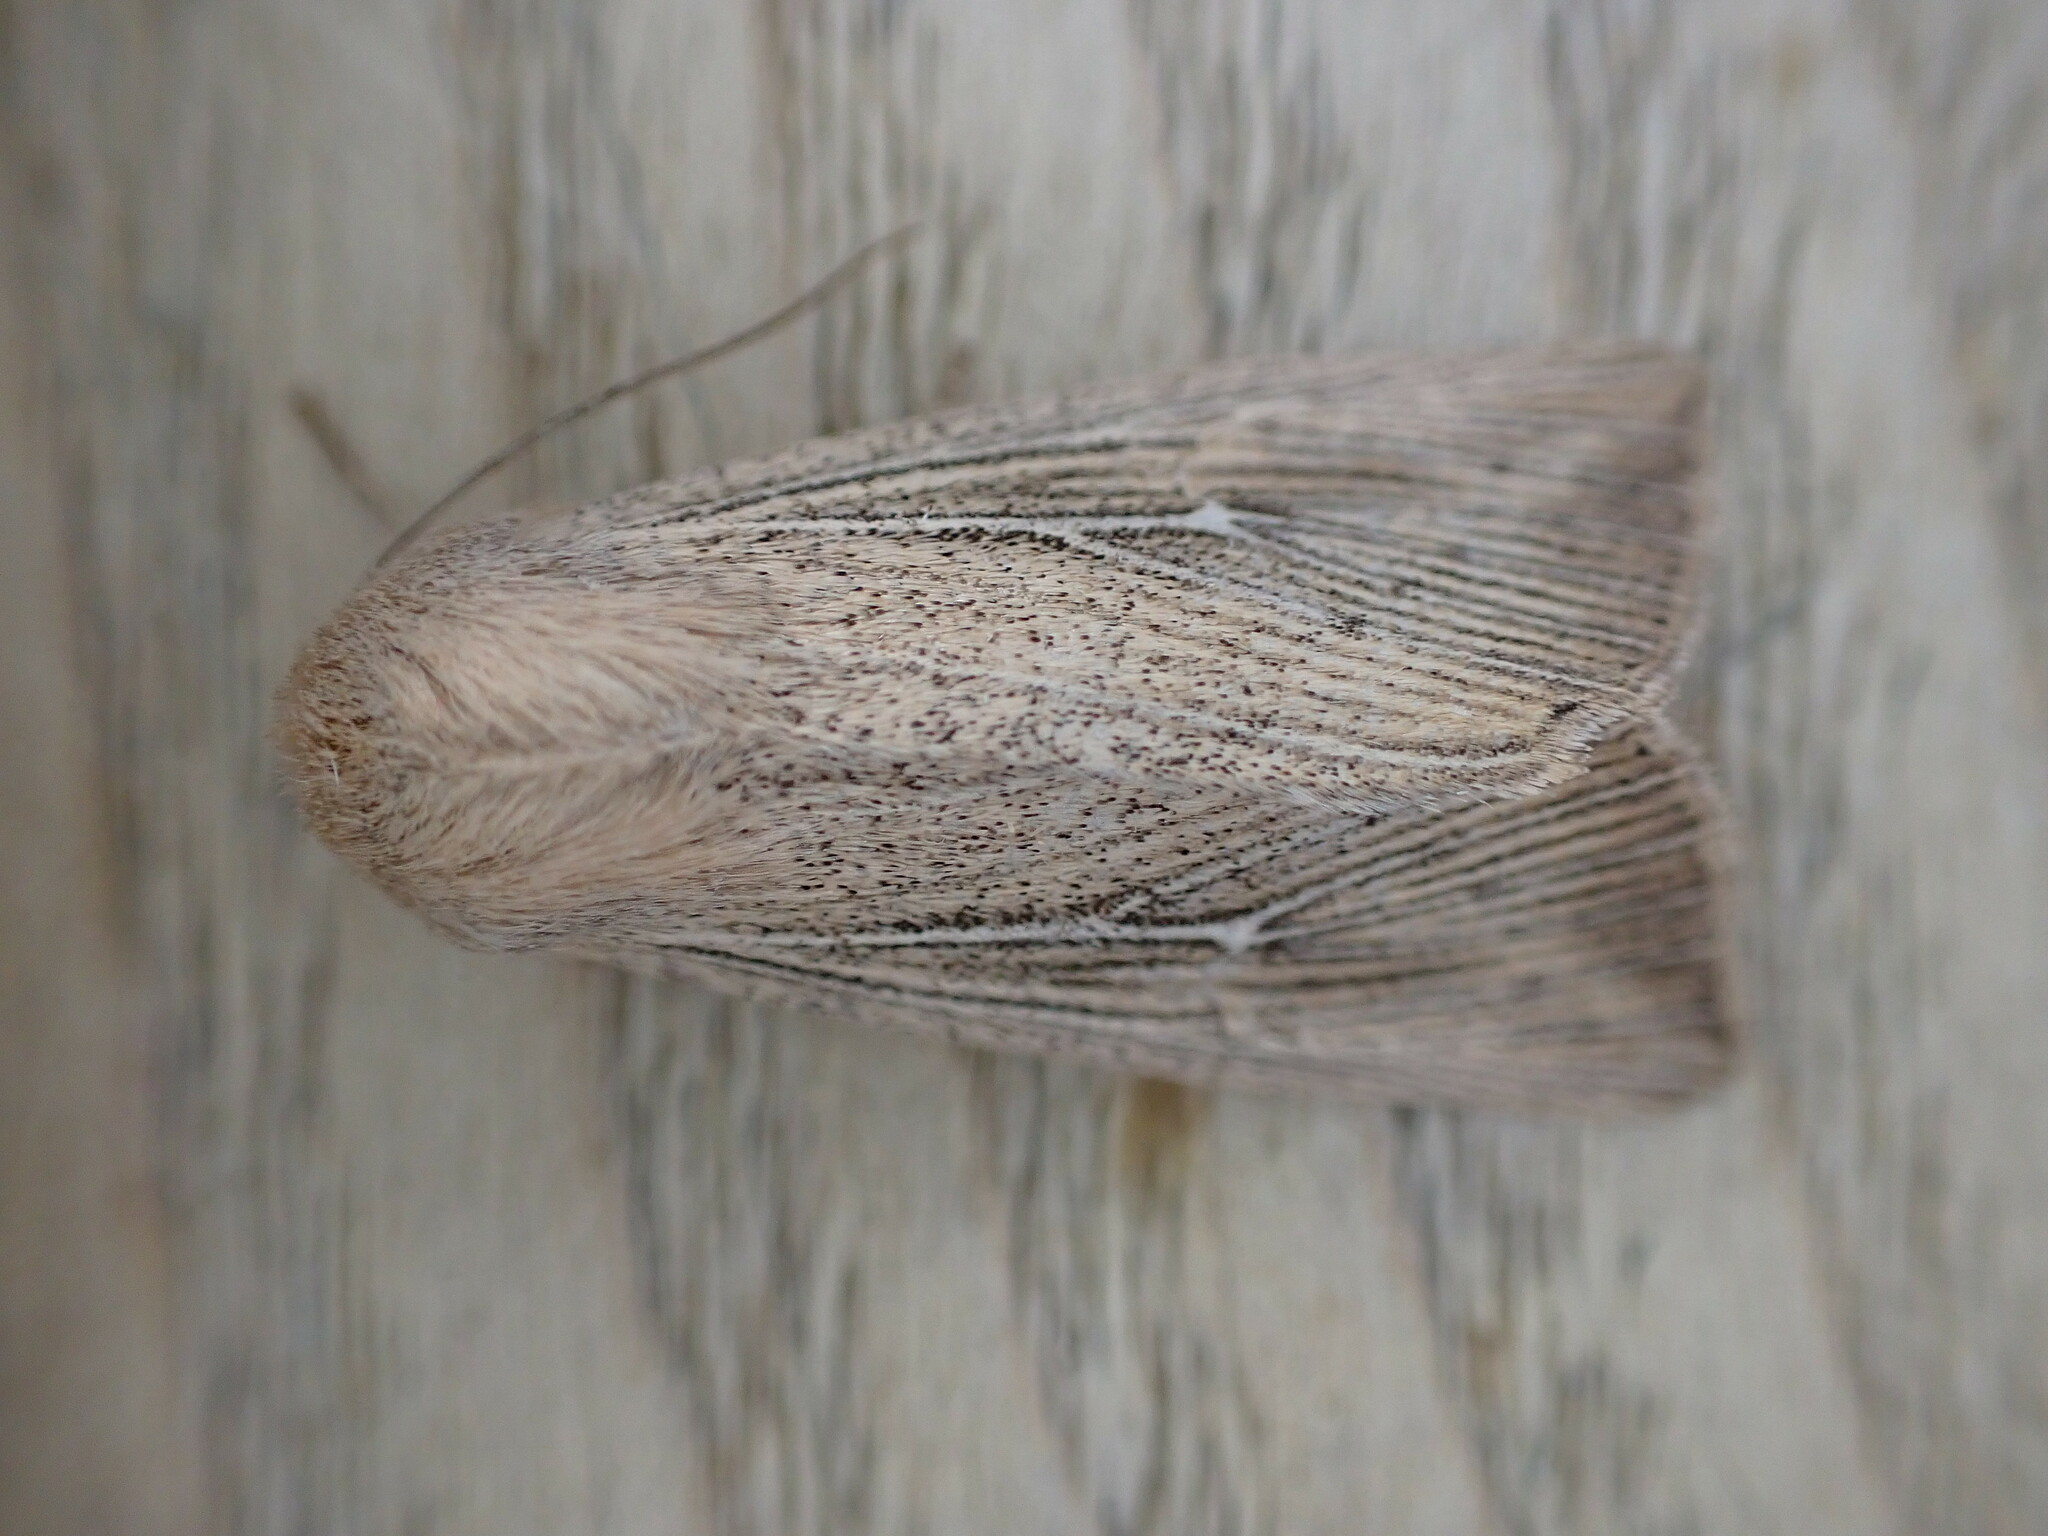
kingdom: Animalia
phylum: Arthropoda
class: Insecta
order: Lepidoptera
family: Noctuidae
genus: Leucania
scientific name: Leucania obsoleta
